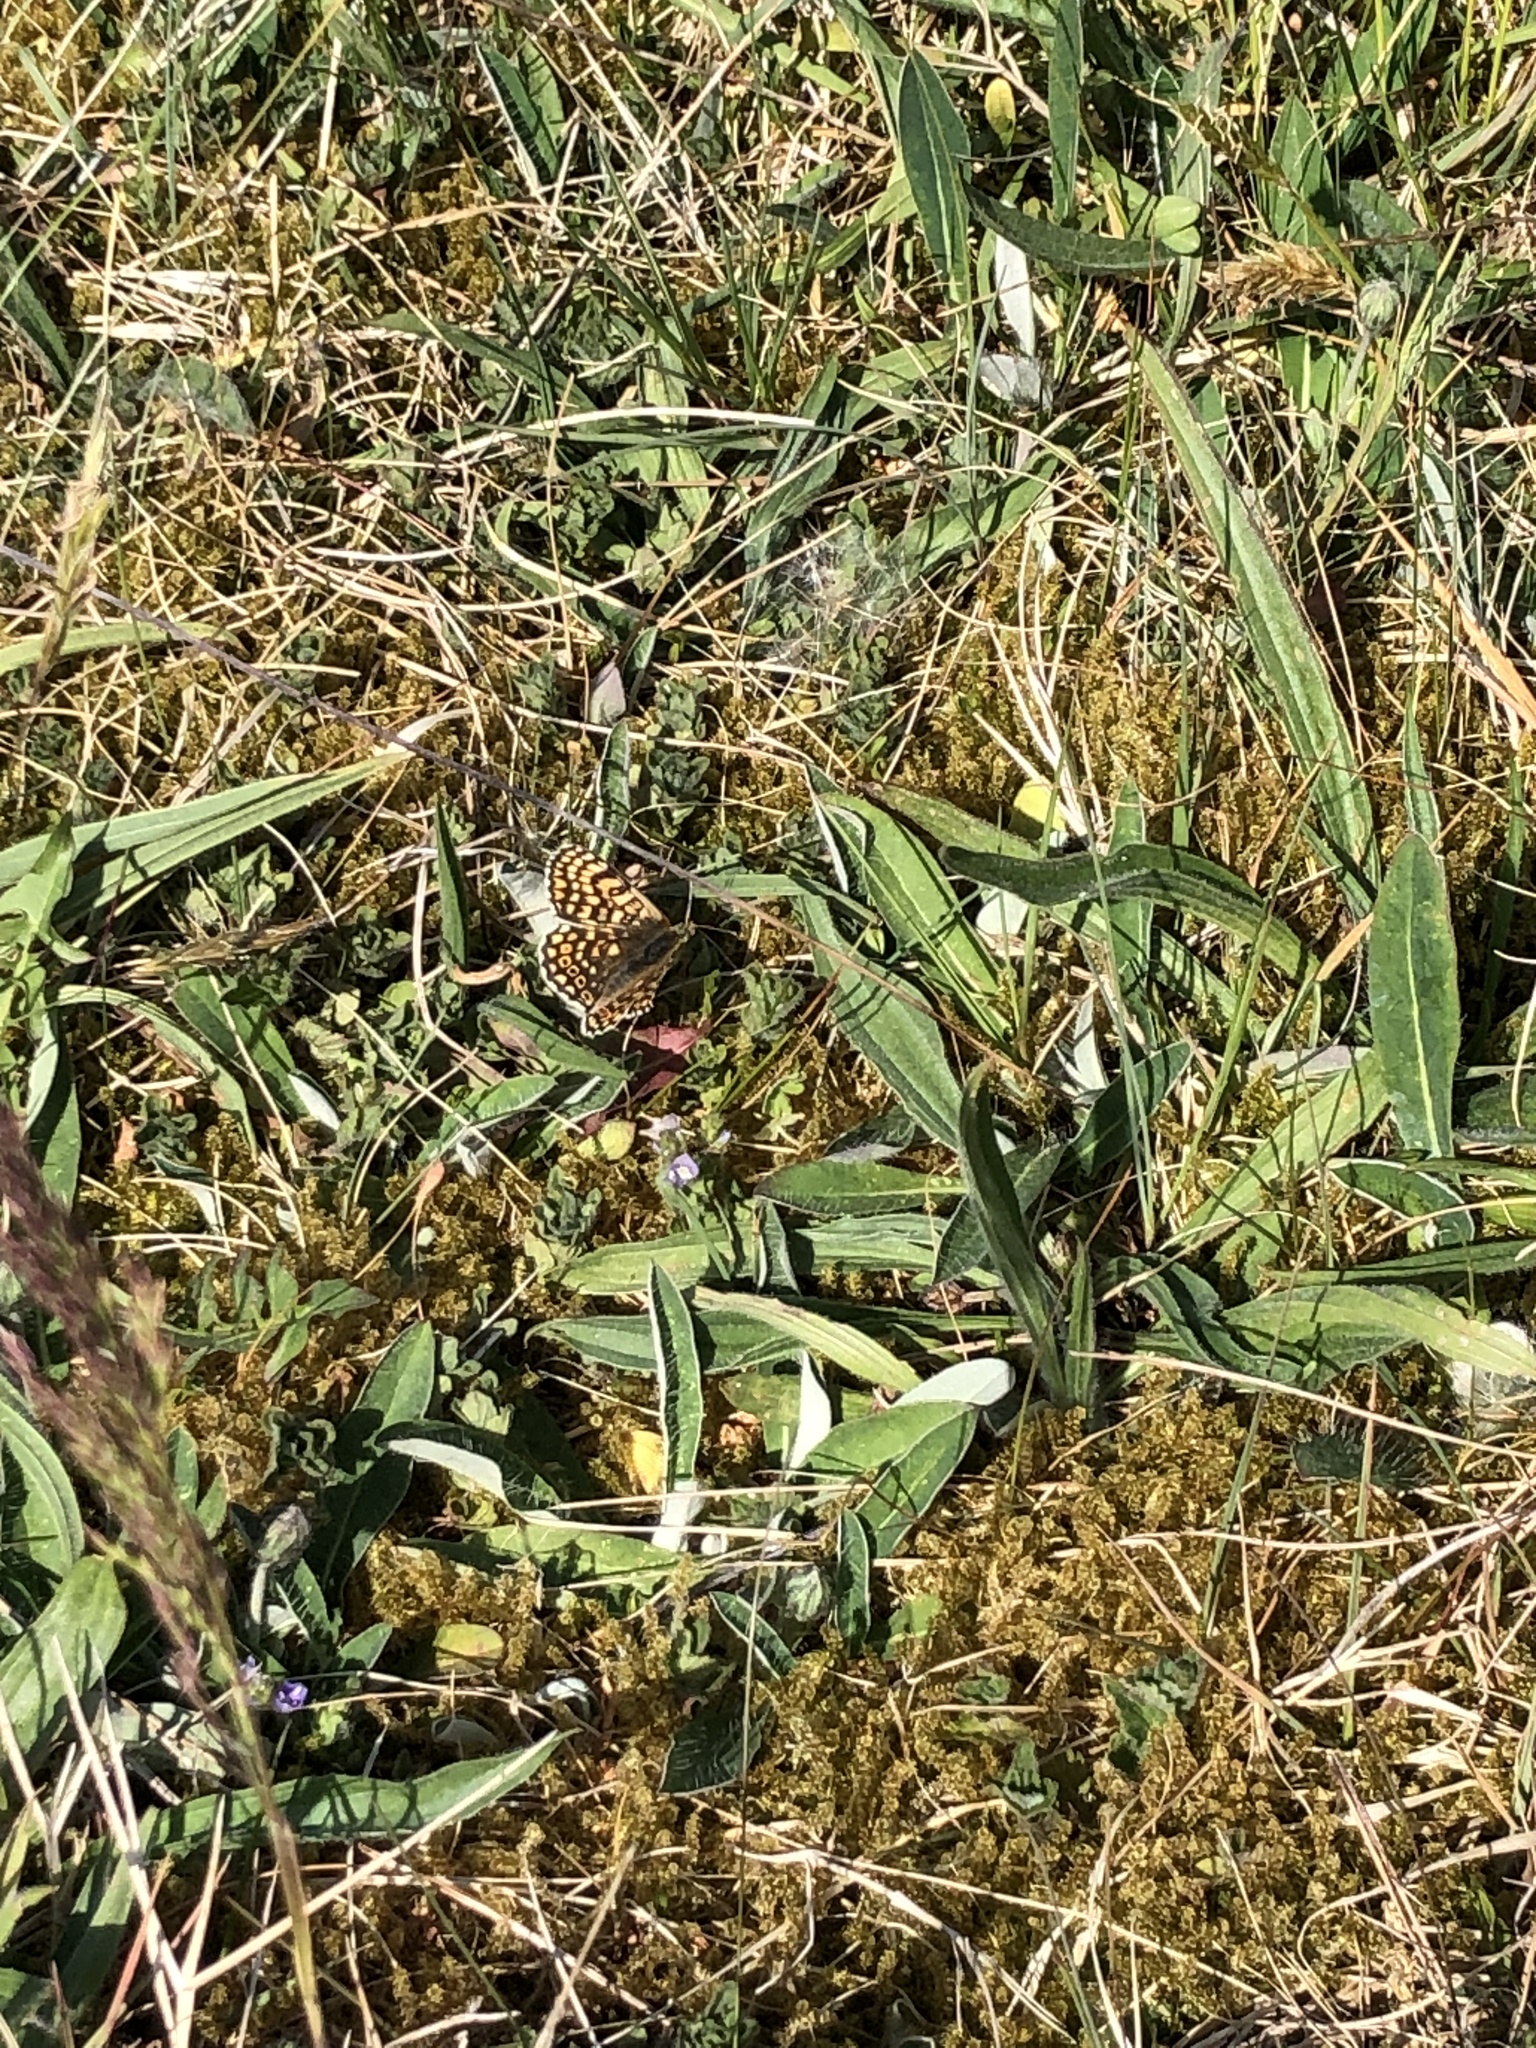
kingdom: Animalia
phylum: Arthropoda
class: Insecta
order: Lepidoptera
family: Nymphalidae
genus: Melitaea
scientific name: Melitaea cinxia
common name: Glanville fritillary
